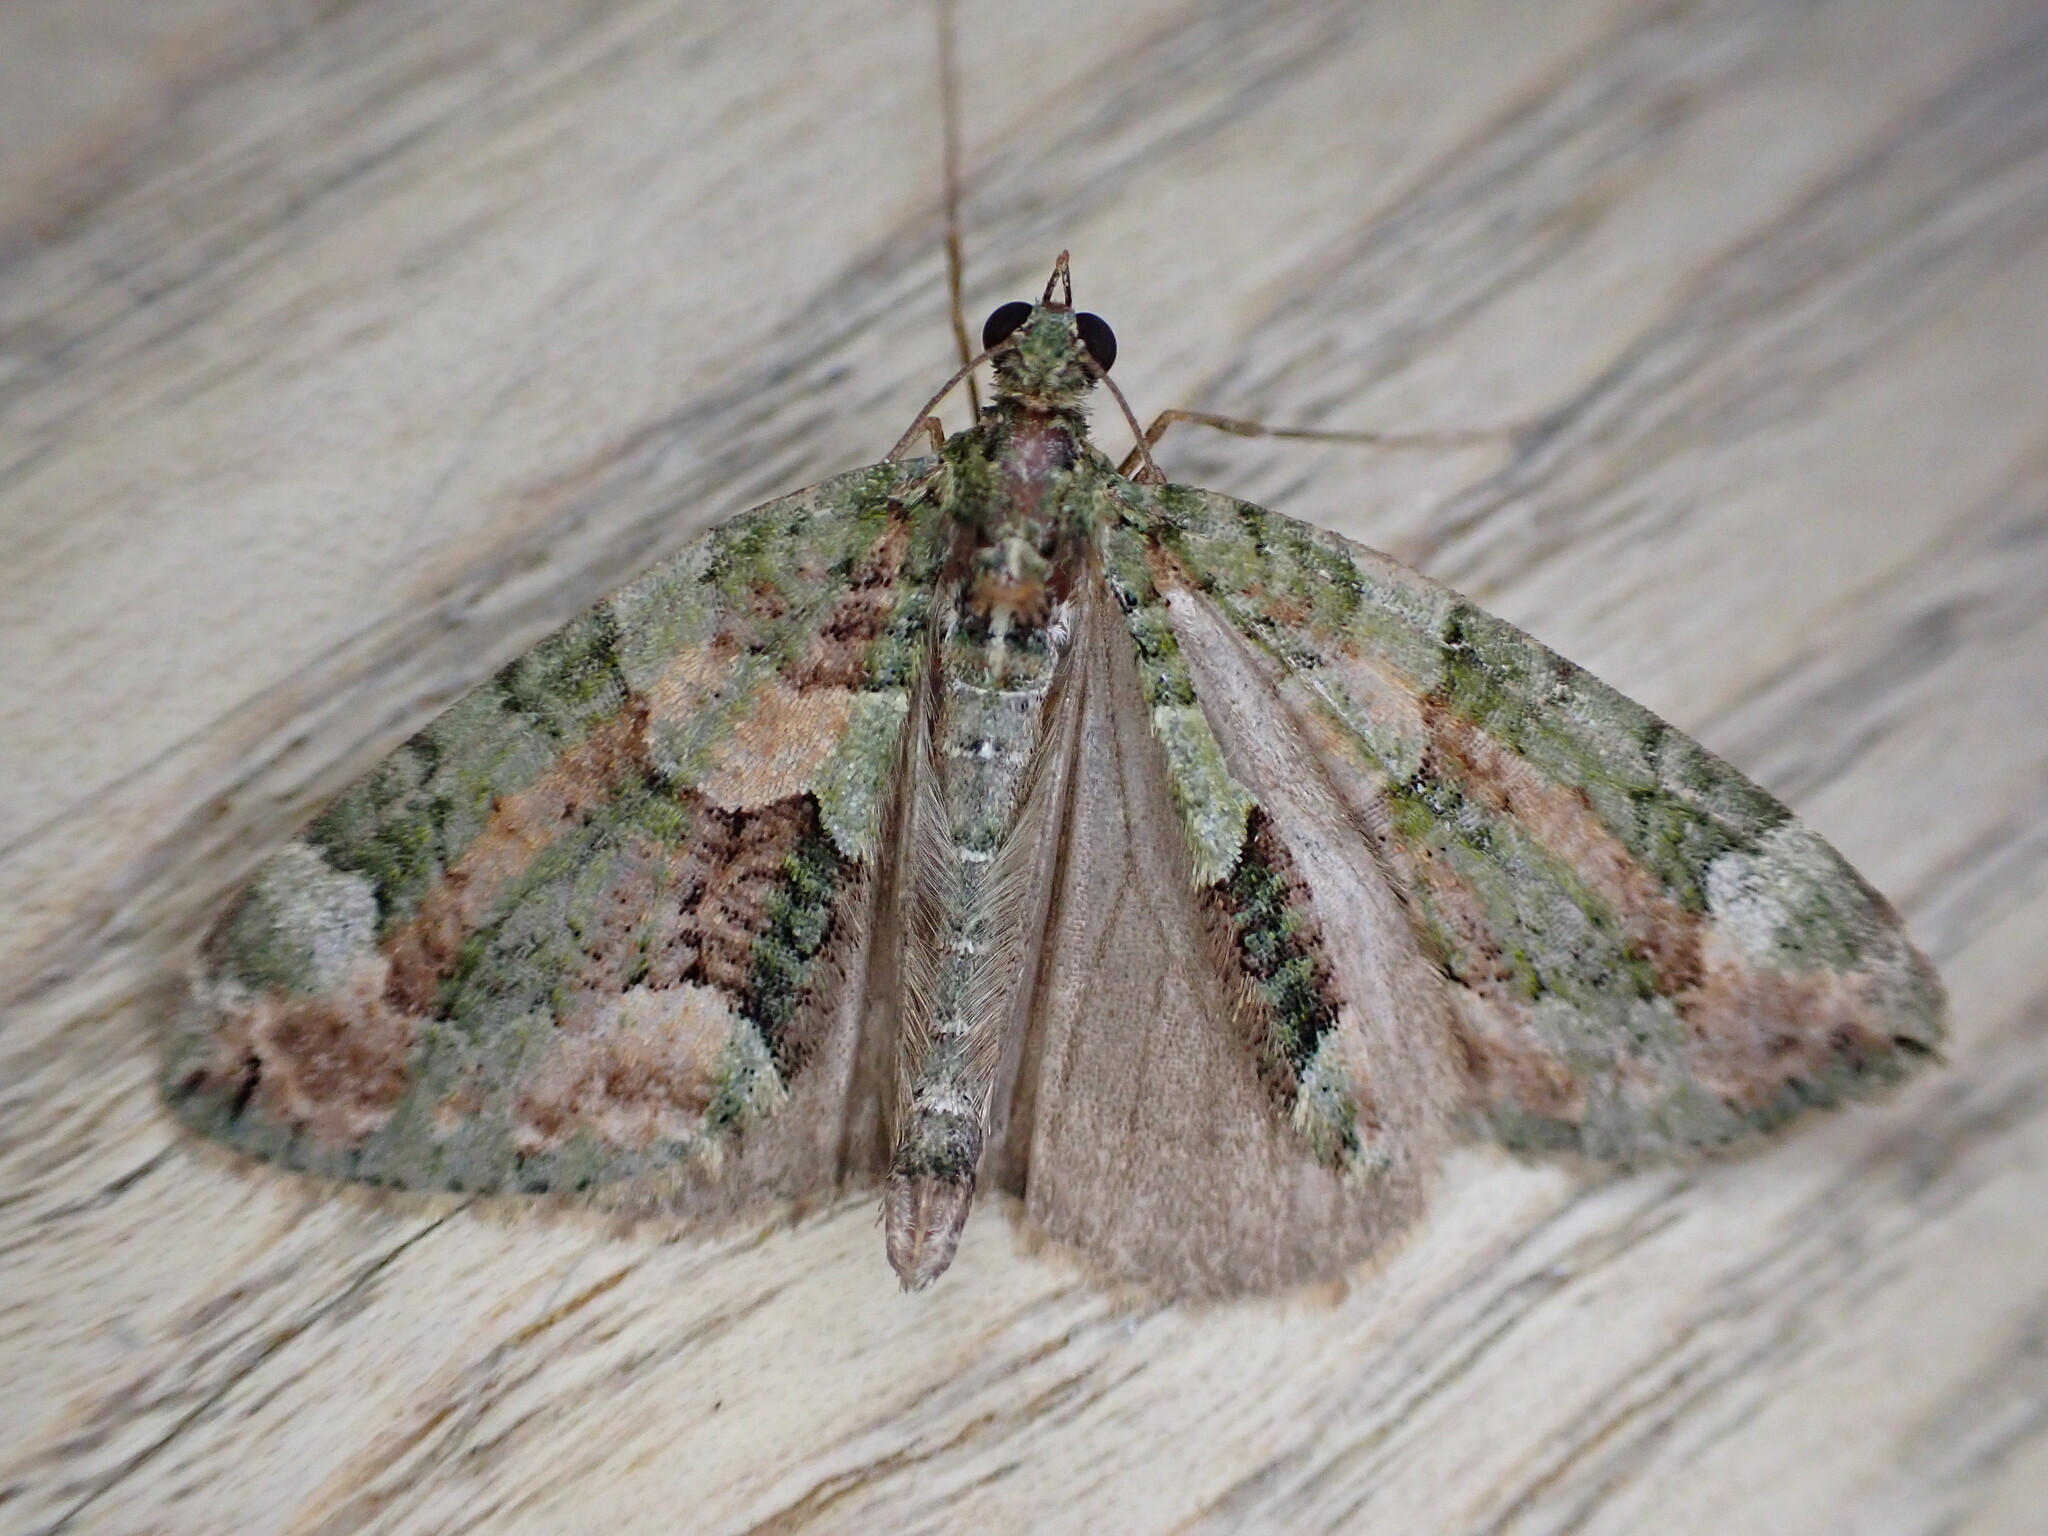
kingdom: Animalia
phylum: Arthropoda
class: Insecta
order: Lepidoptera
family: Geometridae
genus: Chloroclysta
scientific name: Chloroclysta siterata
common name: Red-green carpet
